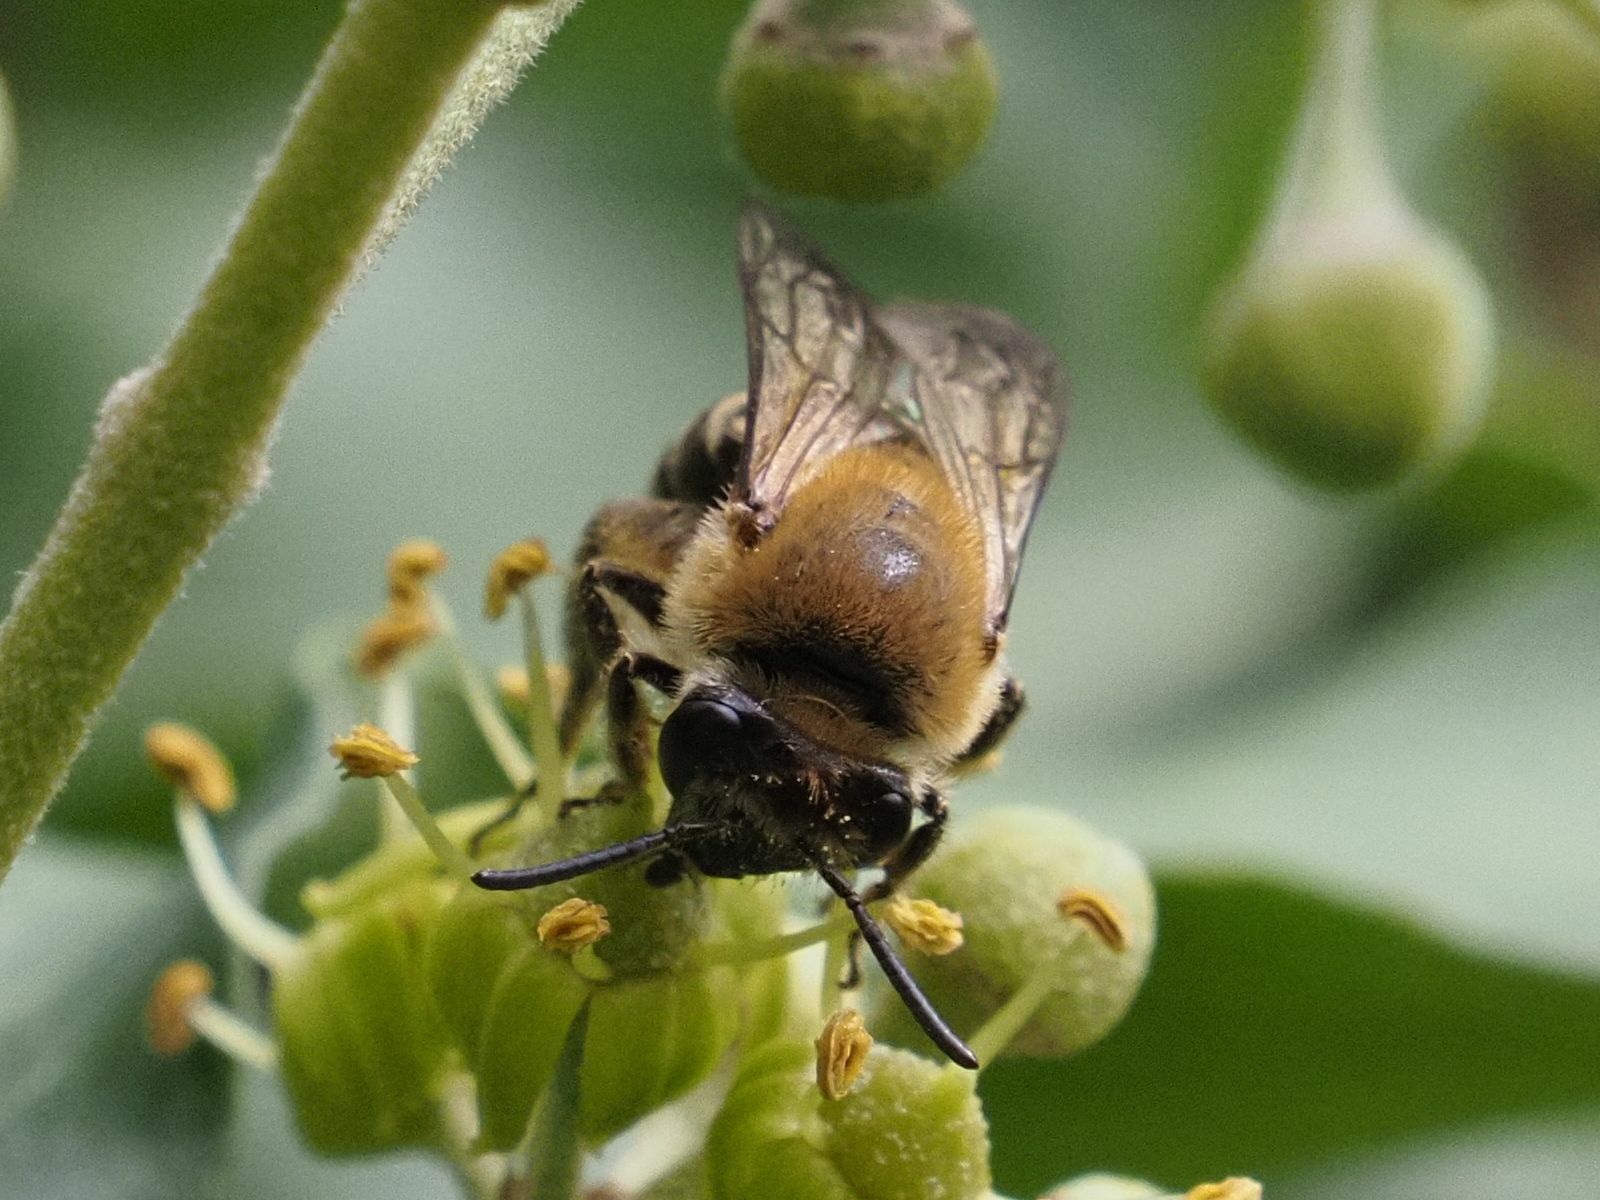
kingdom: Animalia
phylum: Arthropoda
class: Insecta
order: Hymenoptera
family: Colletidae
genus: Colletes
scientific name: Colletes hederae
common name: Ivy bee
